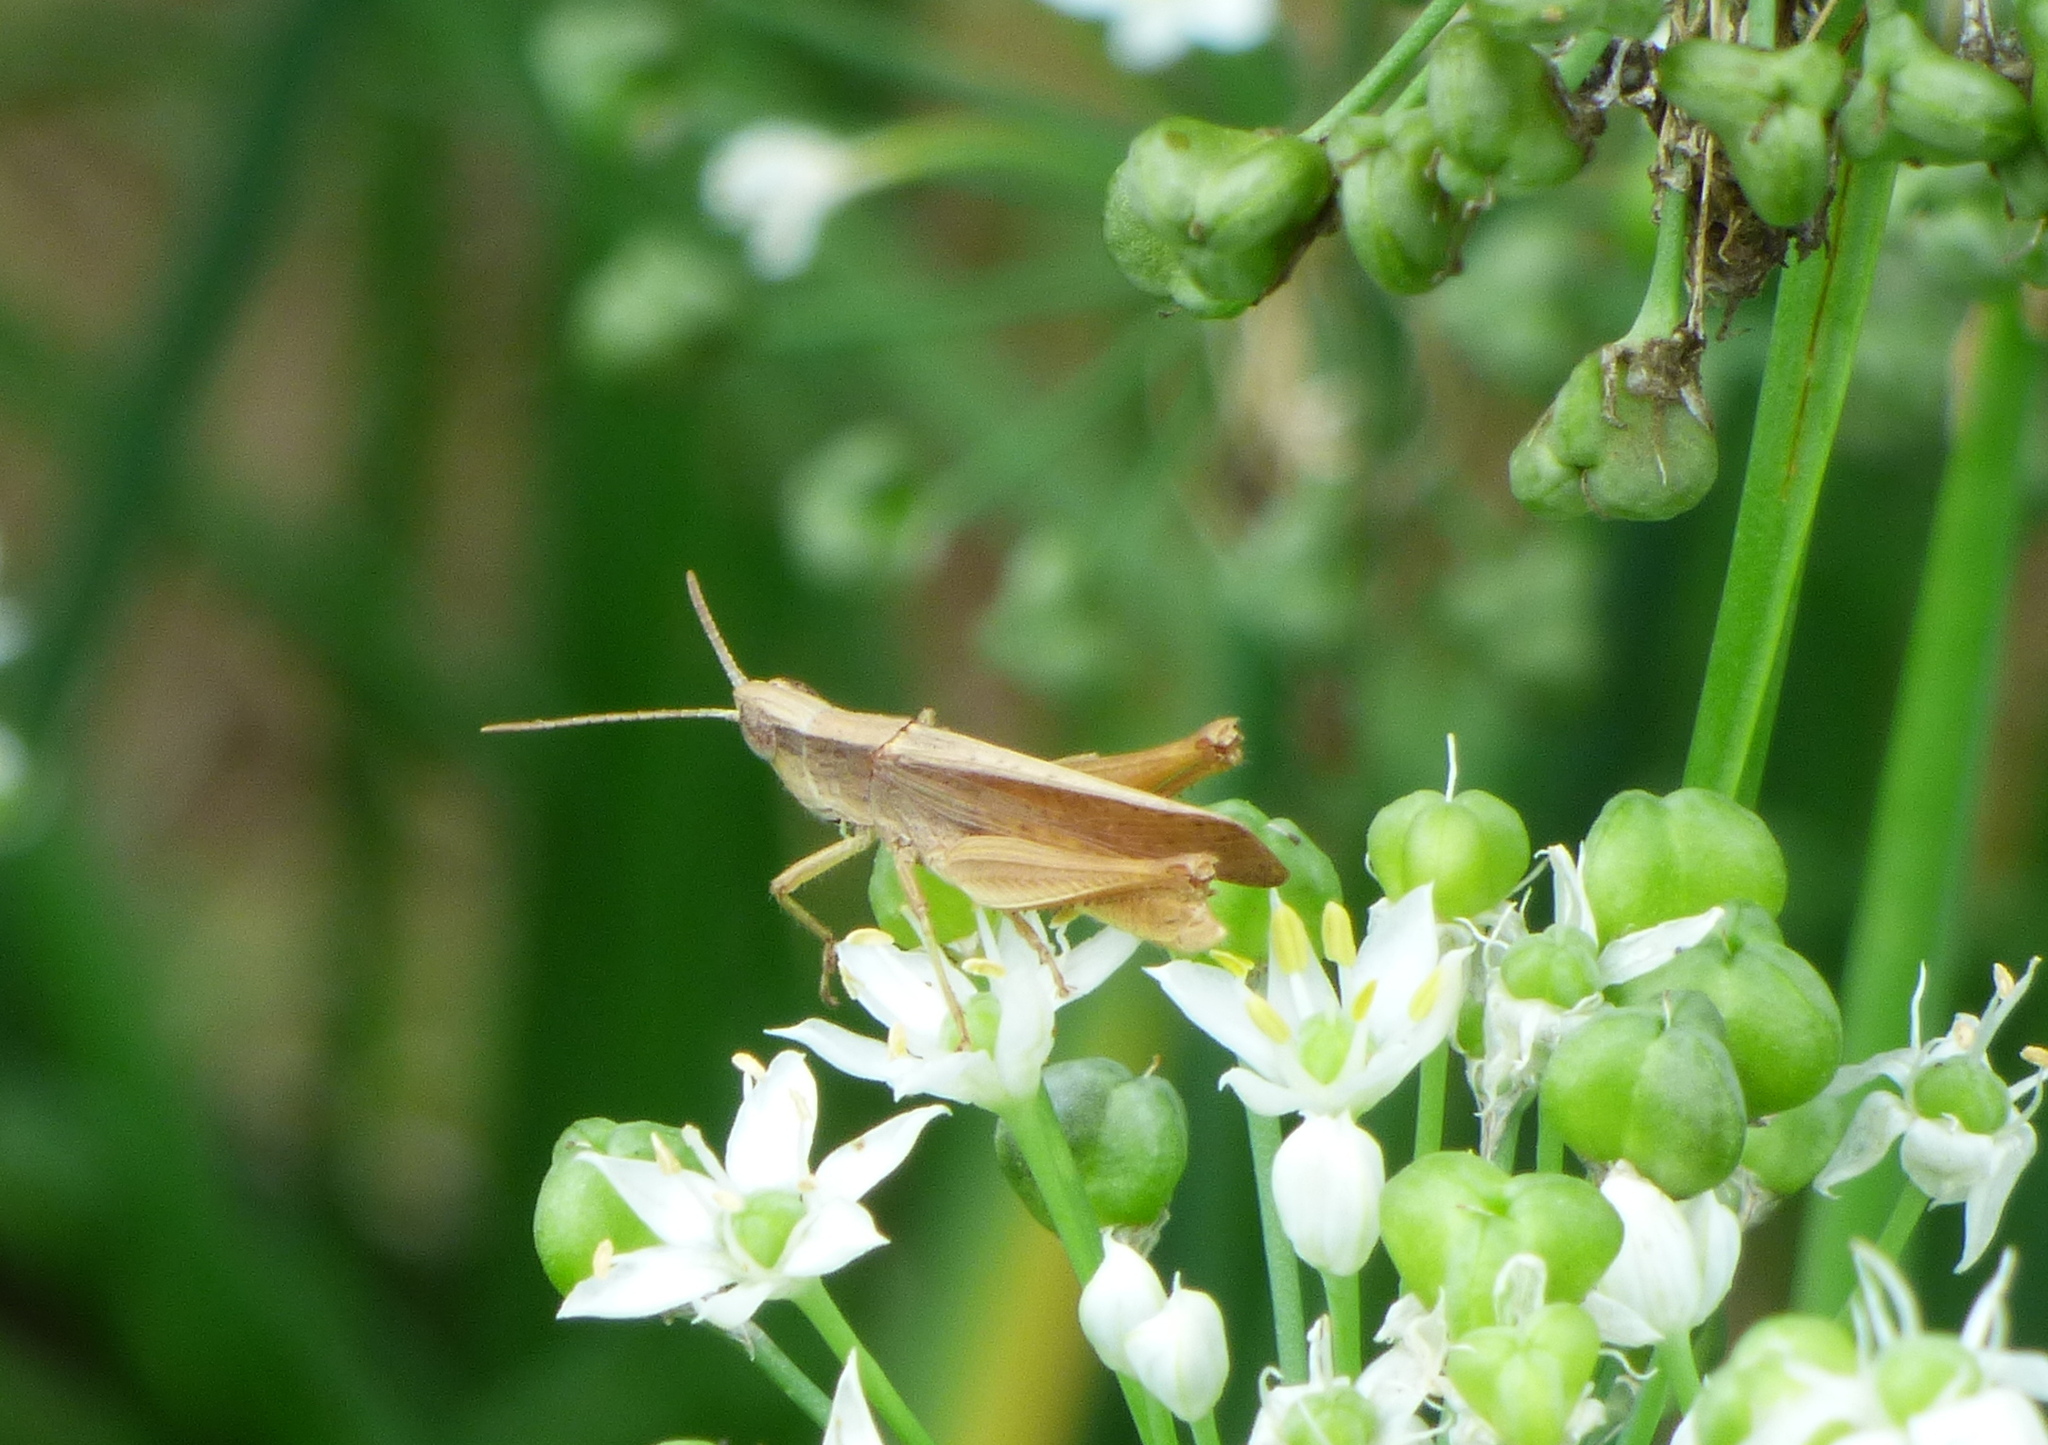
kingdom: Animalia
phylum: Arthropoda
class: Insecta
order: Orthoptera
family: Acrididae
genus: Eutryxalis
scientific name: Eutryxalis filata
